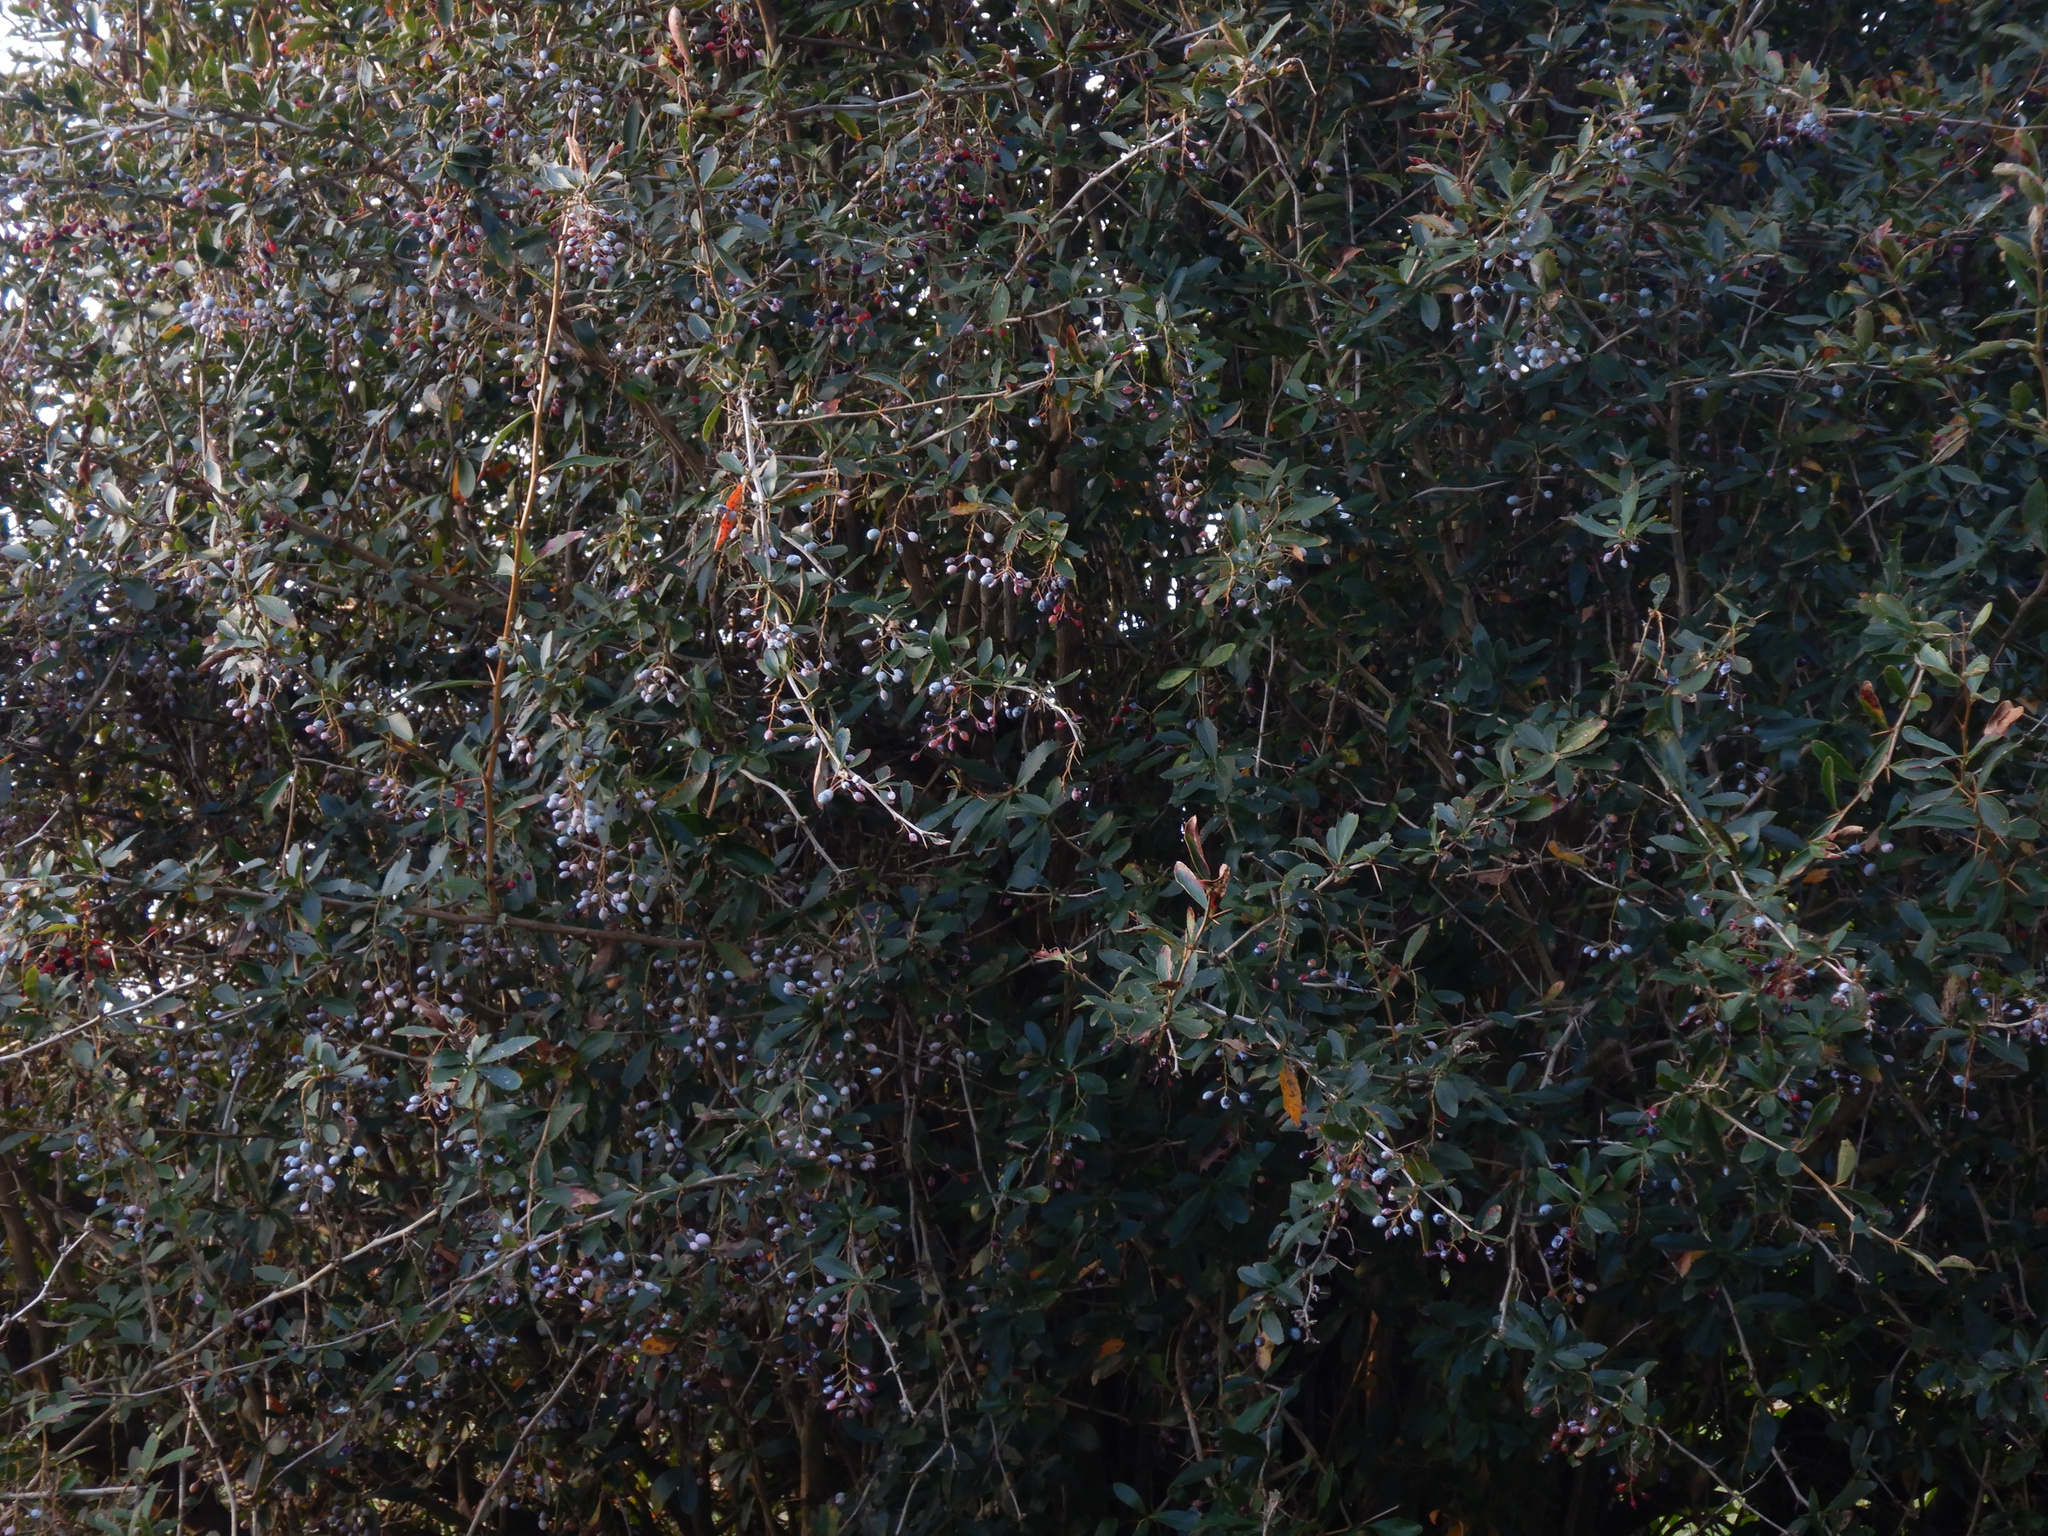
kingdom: Plantae
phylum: Tracheophyta
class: Magnoliopsida
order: Ranunculales
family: Berberidaceae
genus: Berberis
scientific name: Berberis glaucocarpa
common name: Great barberry
